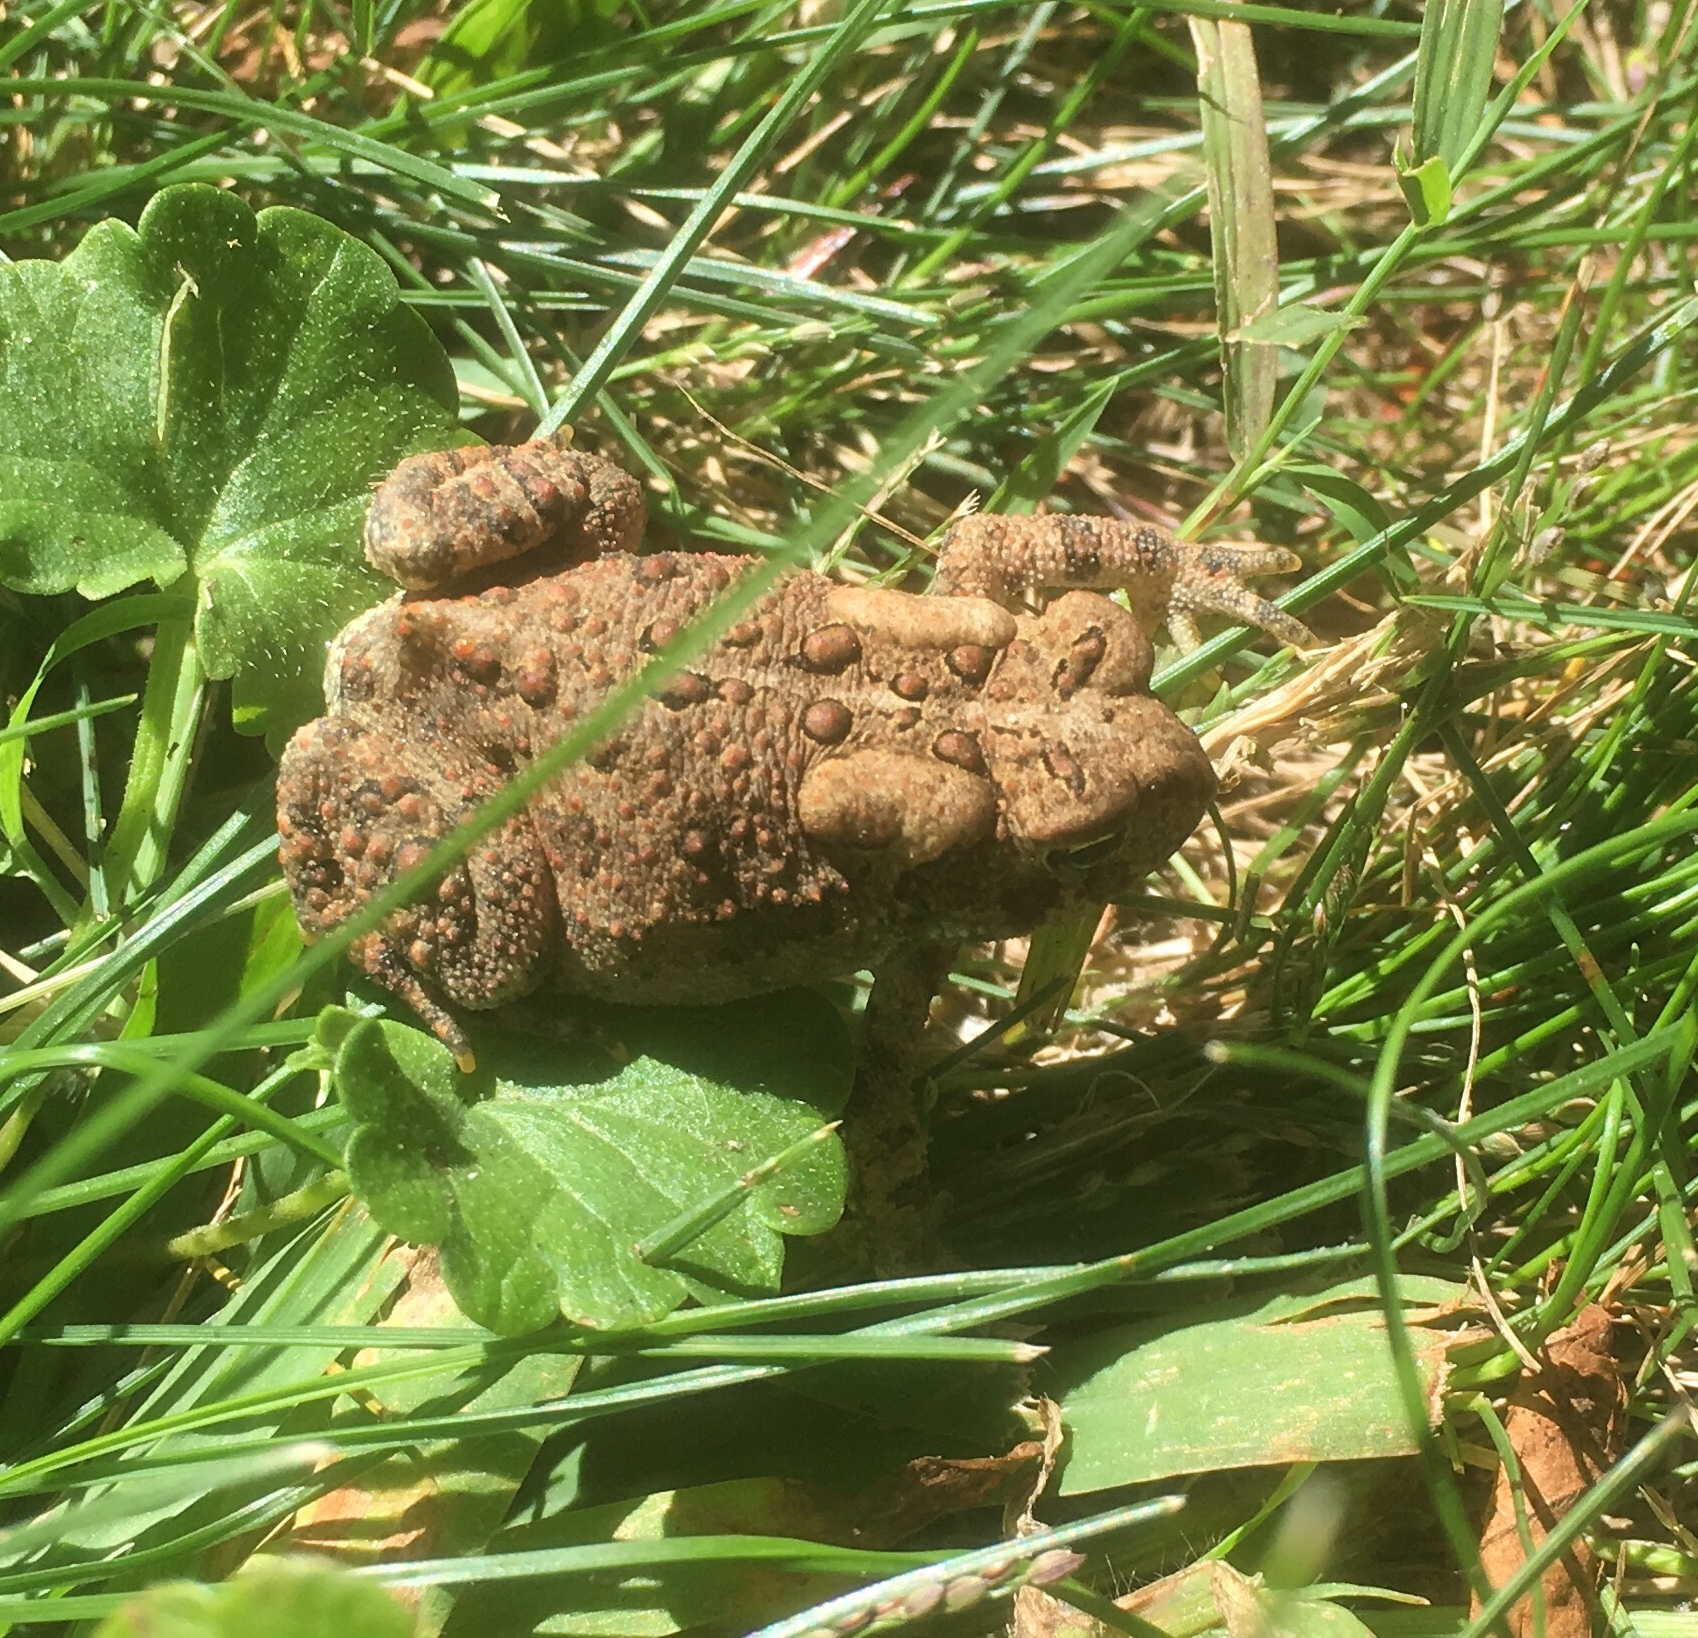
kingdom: Animalia
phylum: Chordata
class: Amphibia
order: Anura
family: Bufonidae
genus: Anaxyrus
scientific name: Anaxyrus americanus
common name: American toad
